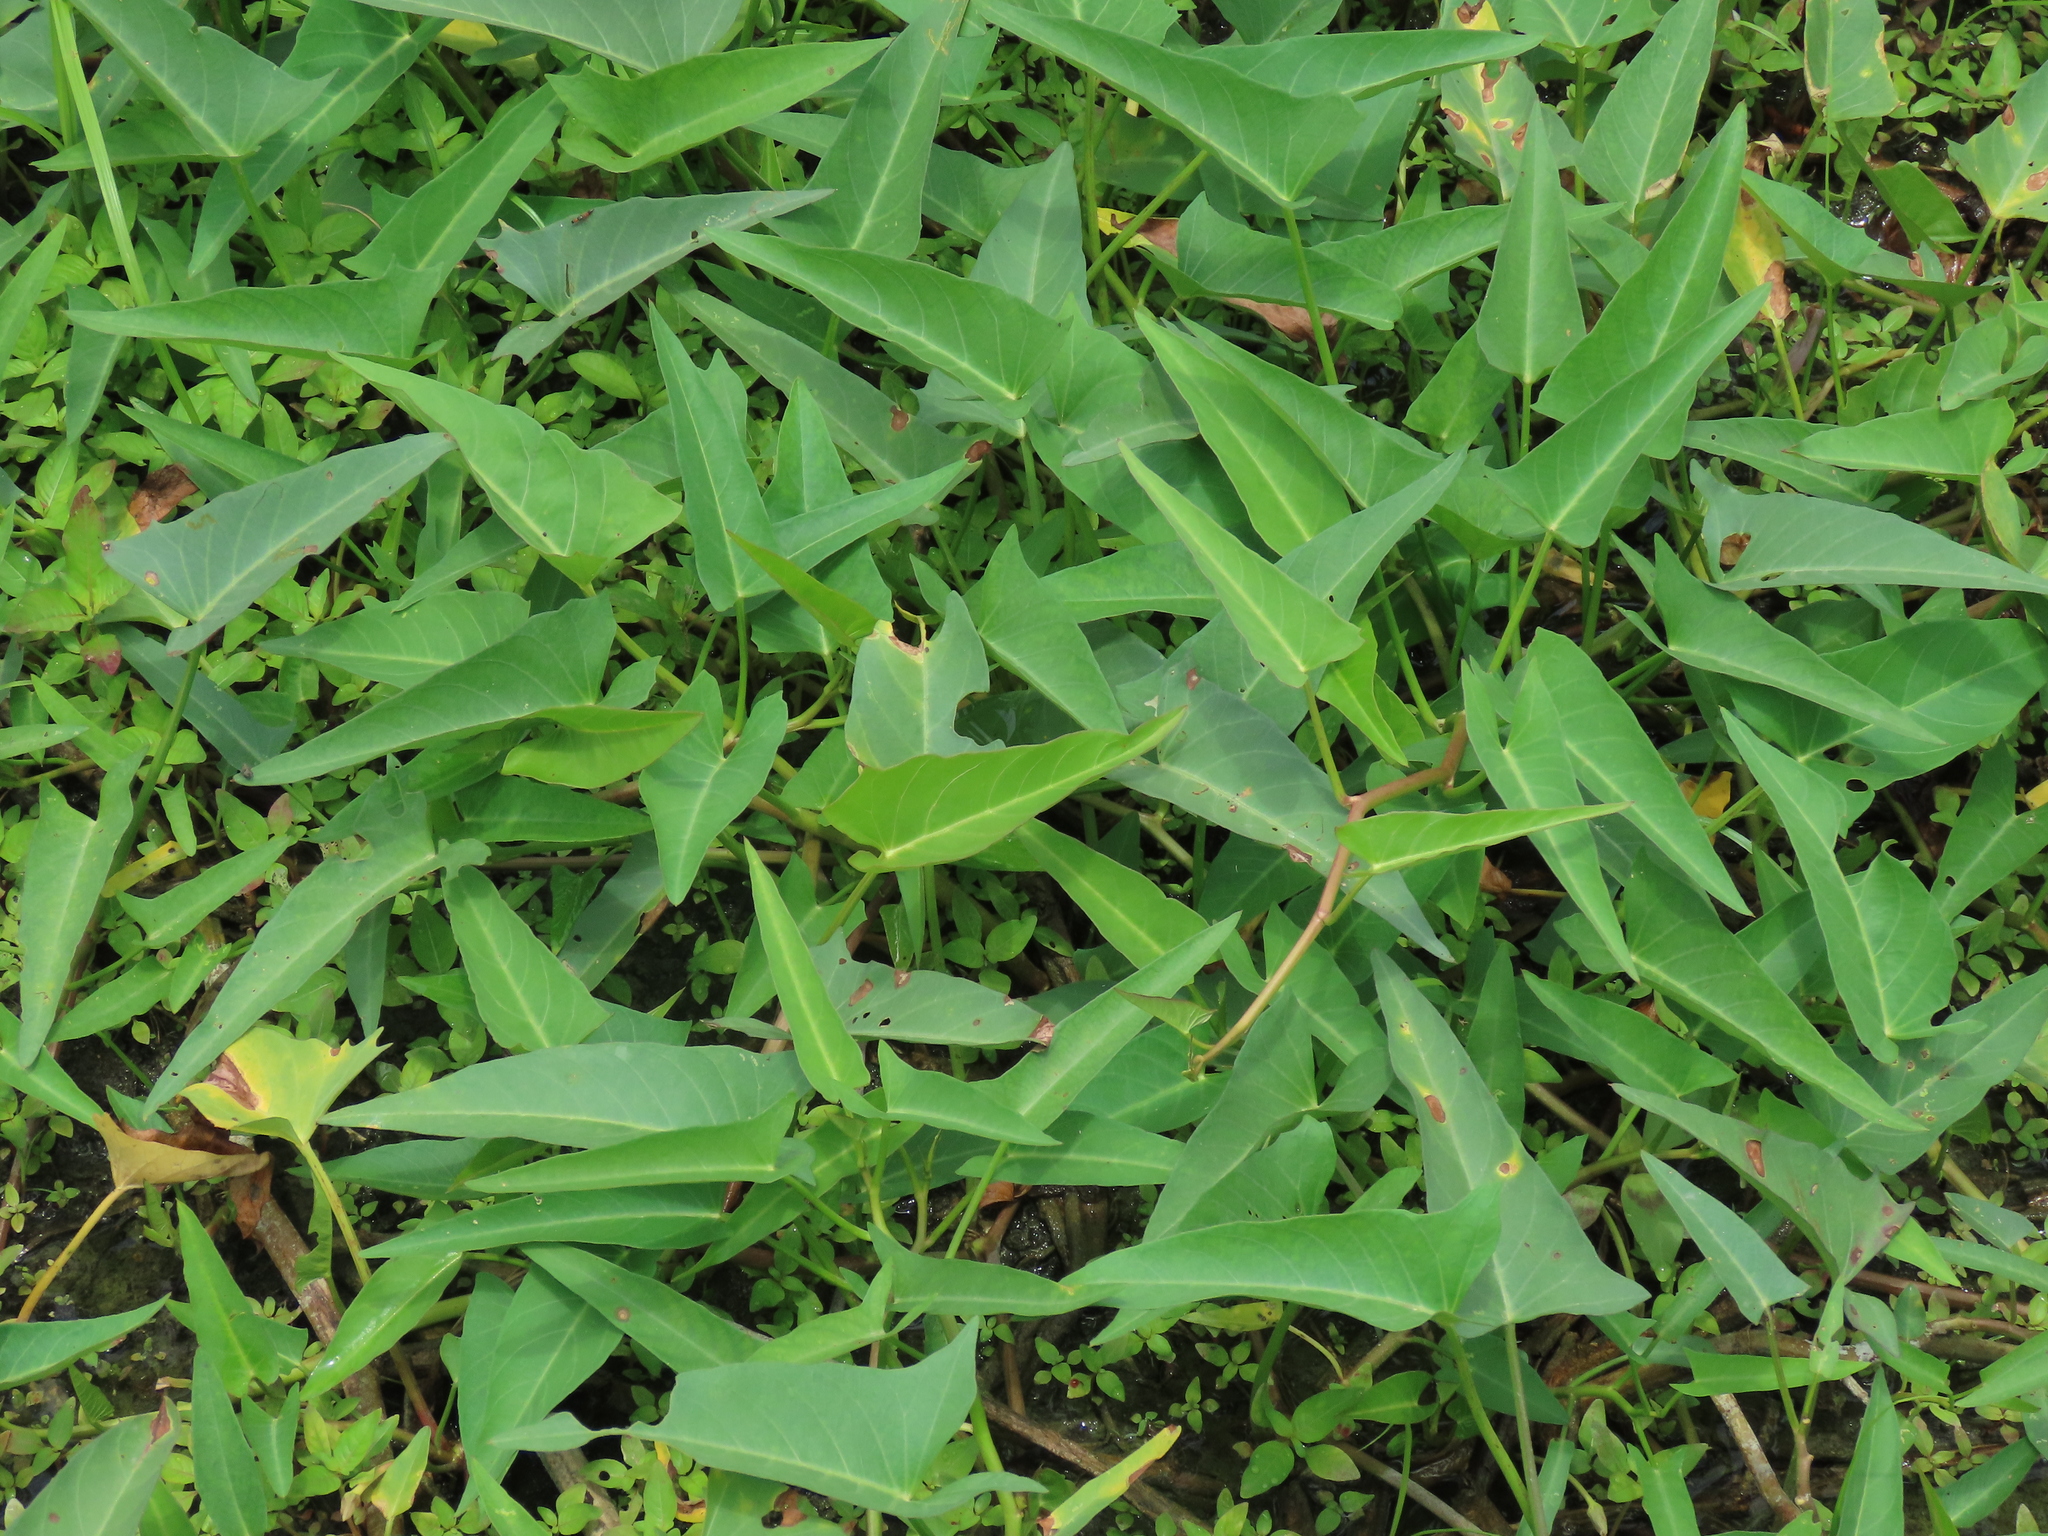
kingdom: Plantae
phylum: Tracheophyta
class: Magnoliopsida
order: Solanales
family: Convolvulaceae
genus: Ipomoea
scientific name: Ipomoea aquatica
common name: Swamp morning-glory
